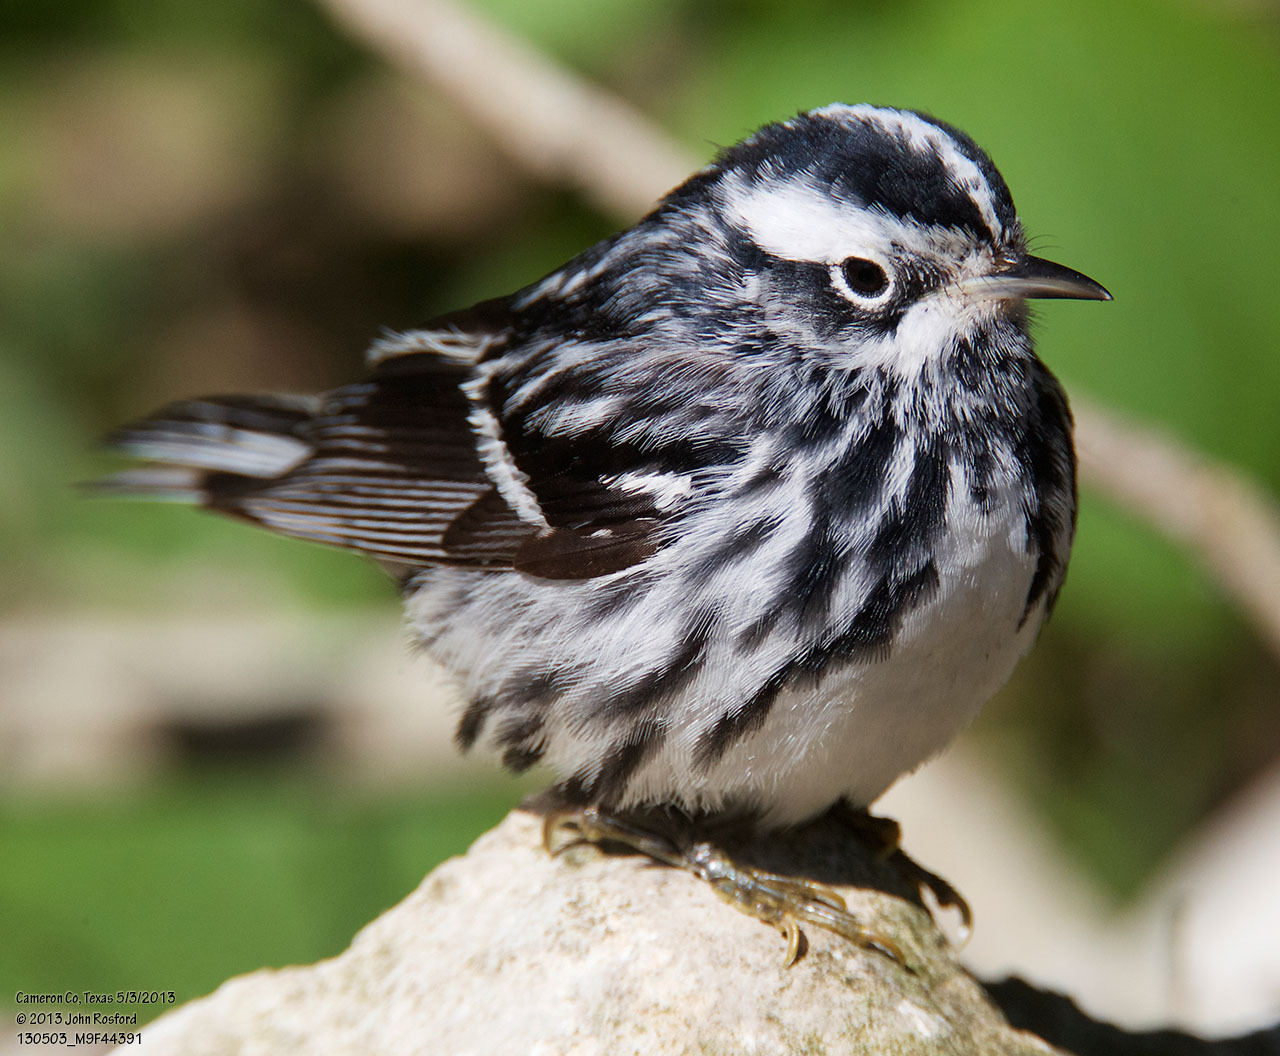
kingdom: Animalia
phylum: Chordata
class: Aves
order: Passeriformes
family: Parulidae
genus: Mniotilta
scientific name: Mniotilta varia
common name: Black-and-white warbler
